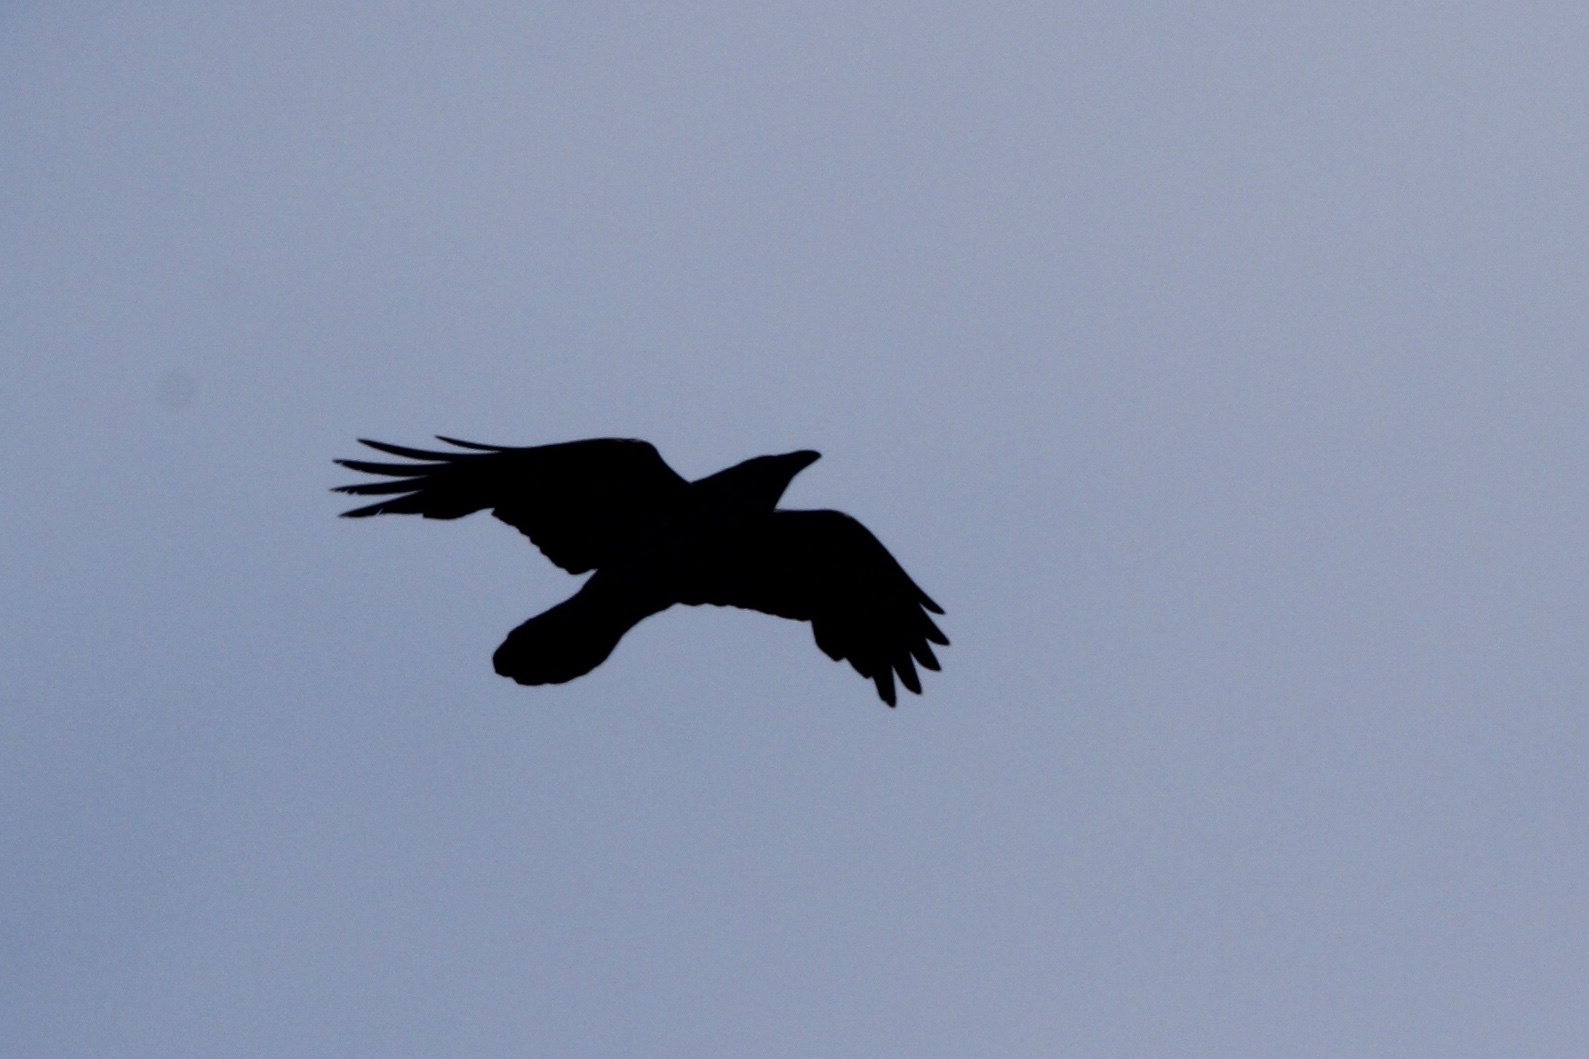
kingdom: Animalia
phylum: Chordata
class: Aves
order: Passeriformes
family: Corvidae
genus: Corvus
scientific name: Corvus corax
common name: Common raven
